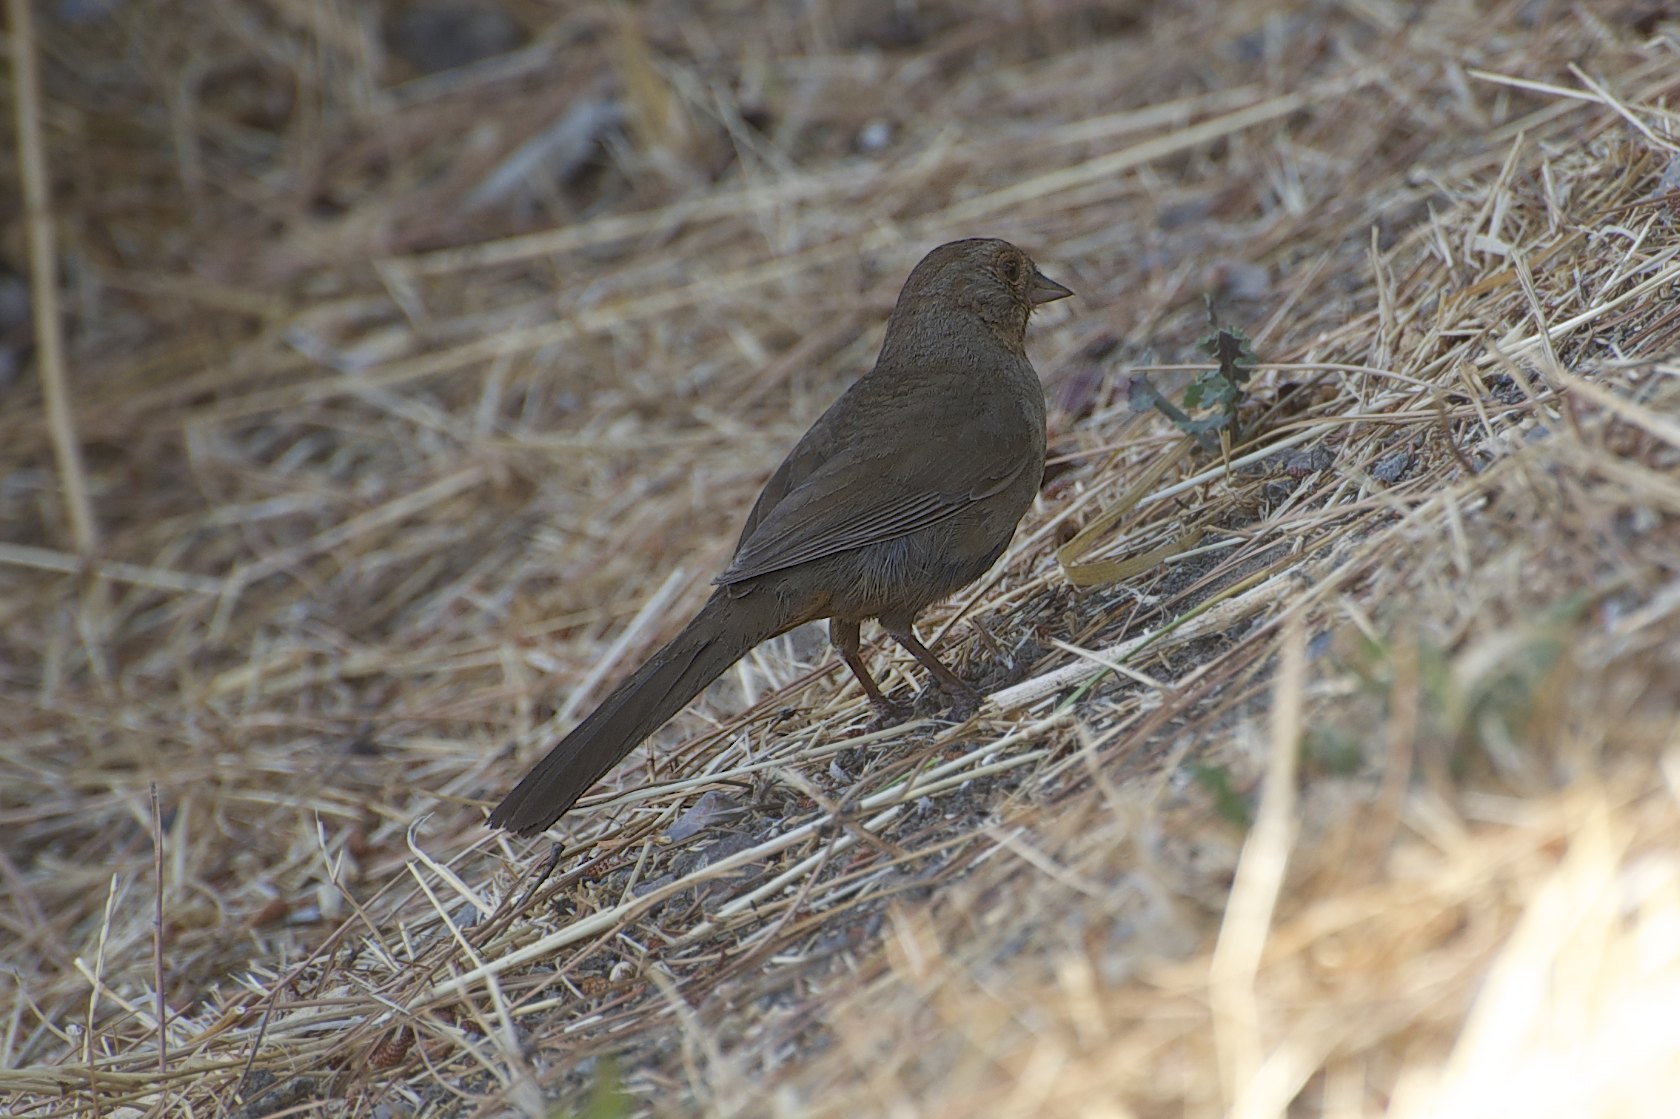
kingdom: Animalia
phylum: Chordata
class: Aves
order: Passeriformes
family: Passerellidae
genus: Melozone
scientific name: Melozone crissalis
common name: California towhee
